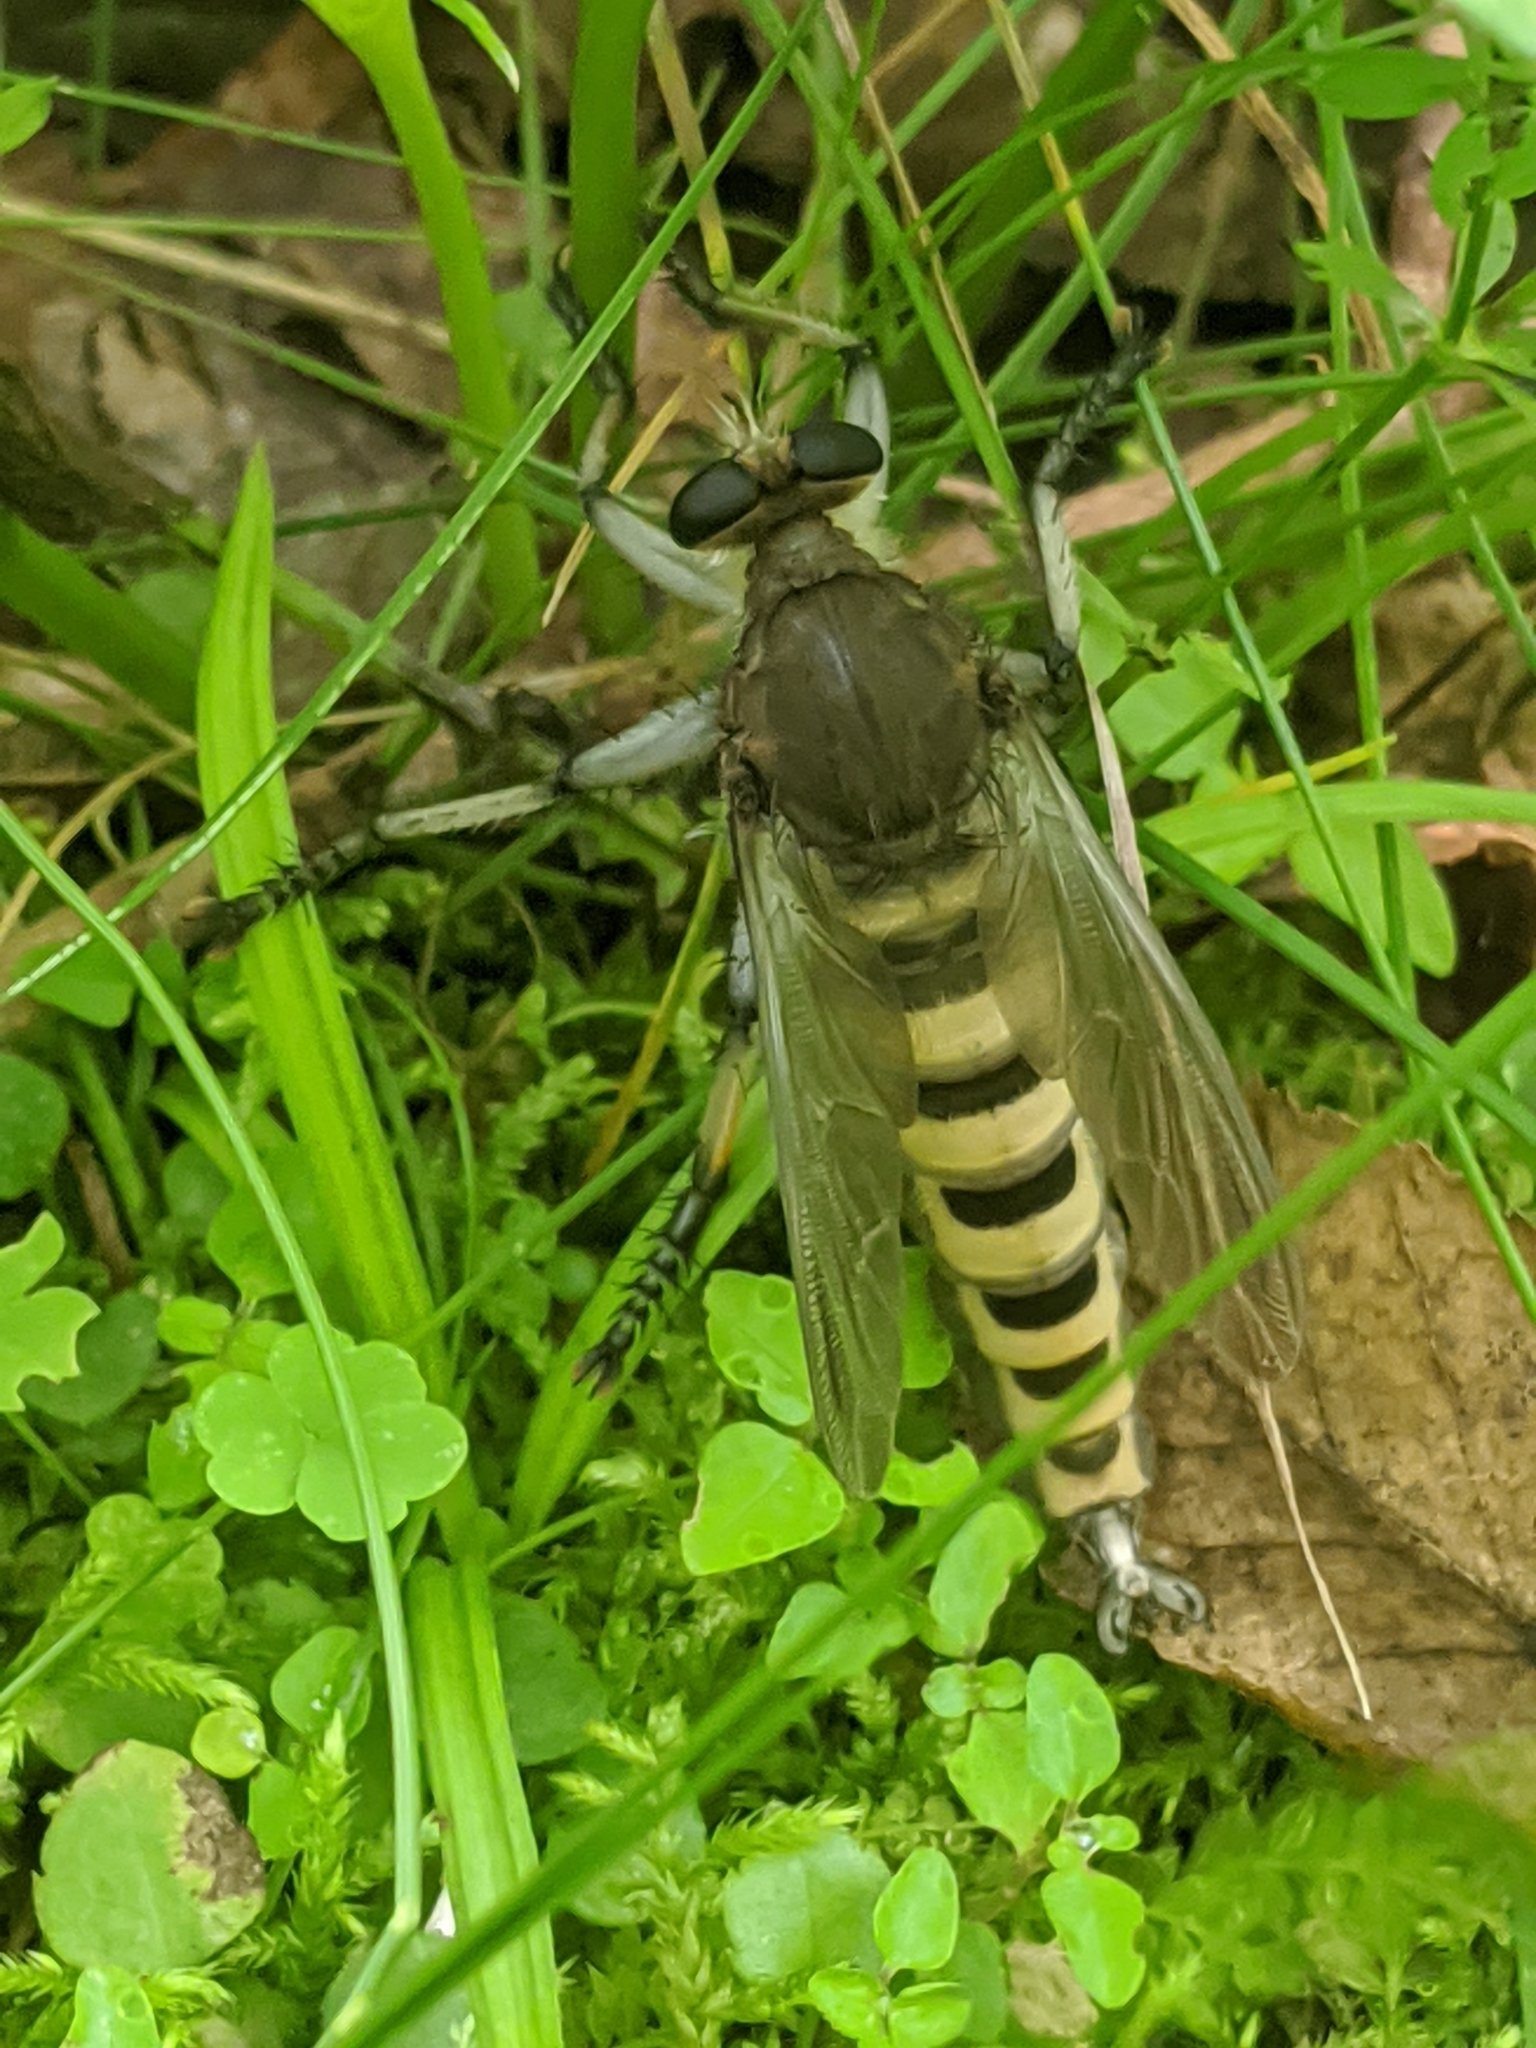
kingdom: Animalia
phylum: Arthropoda
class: Insecta
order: Diptera
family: Asilidae
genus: Promachus
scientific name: Promachus hinei
